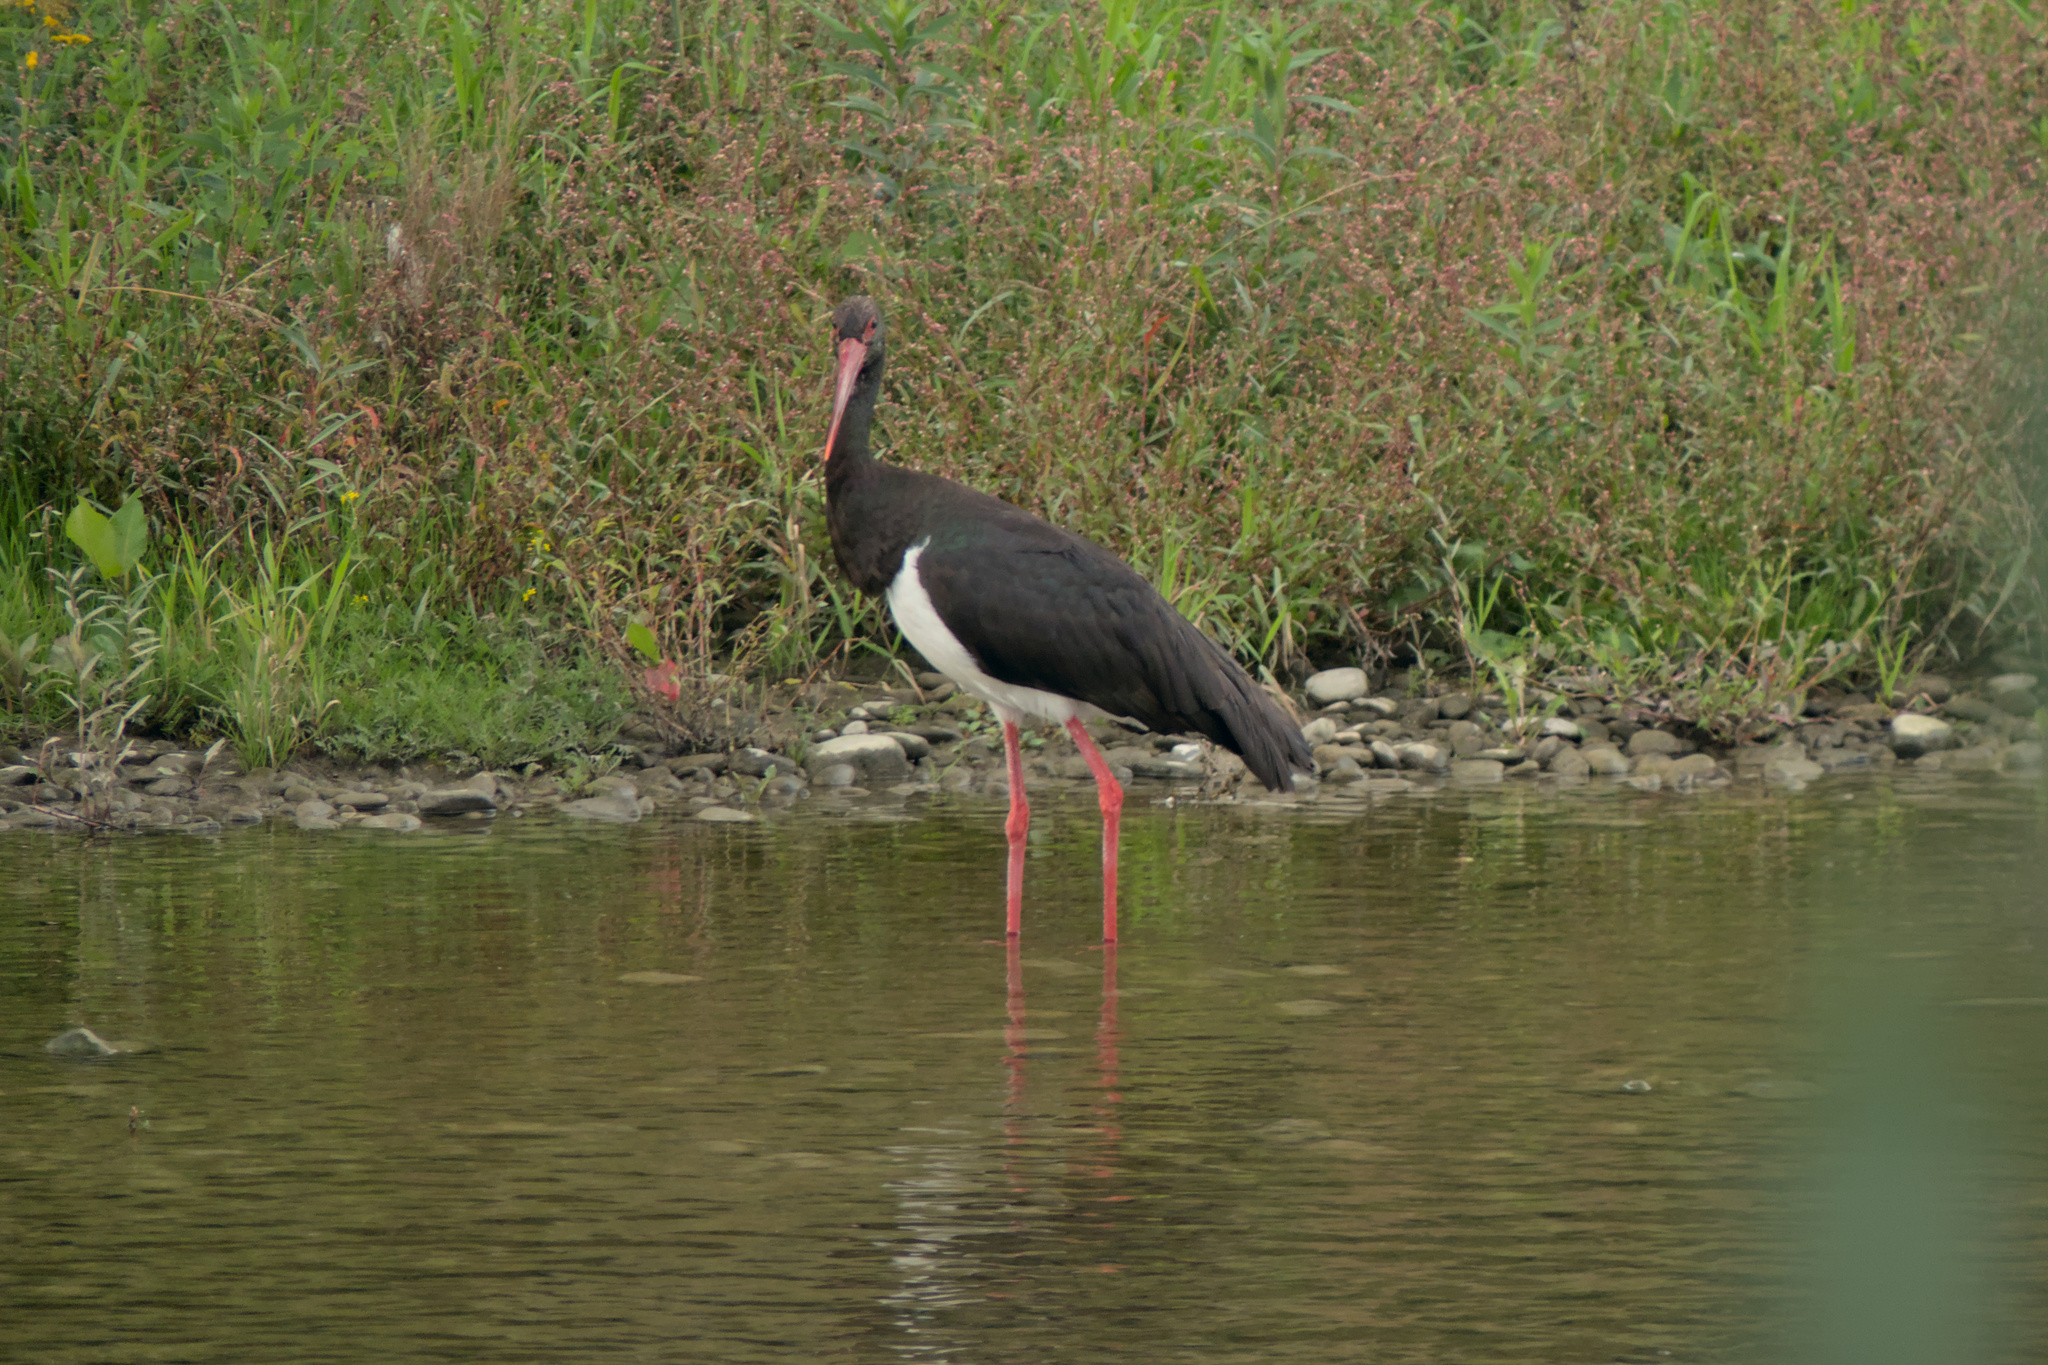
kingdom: Animalia
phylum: Chordata
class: Aves
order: Ciconiiformes
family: Ciconiidae
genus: Ciconia
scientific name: Ciconia nigra
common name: Black stork
